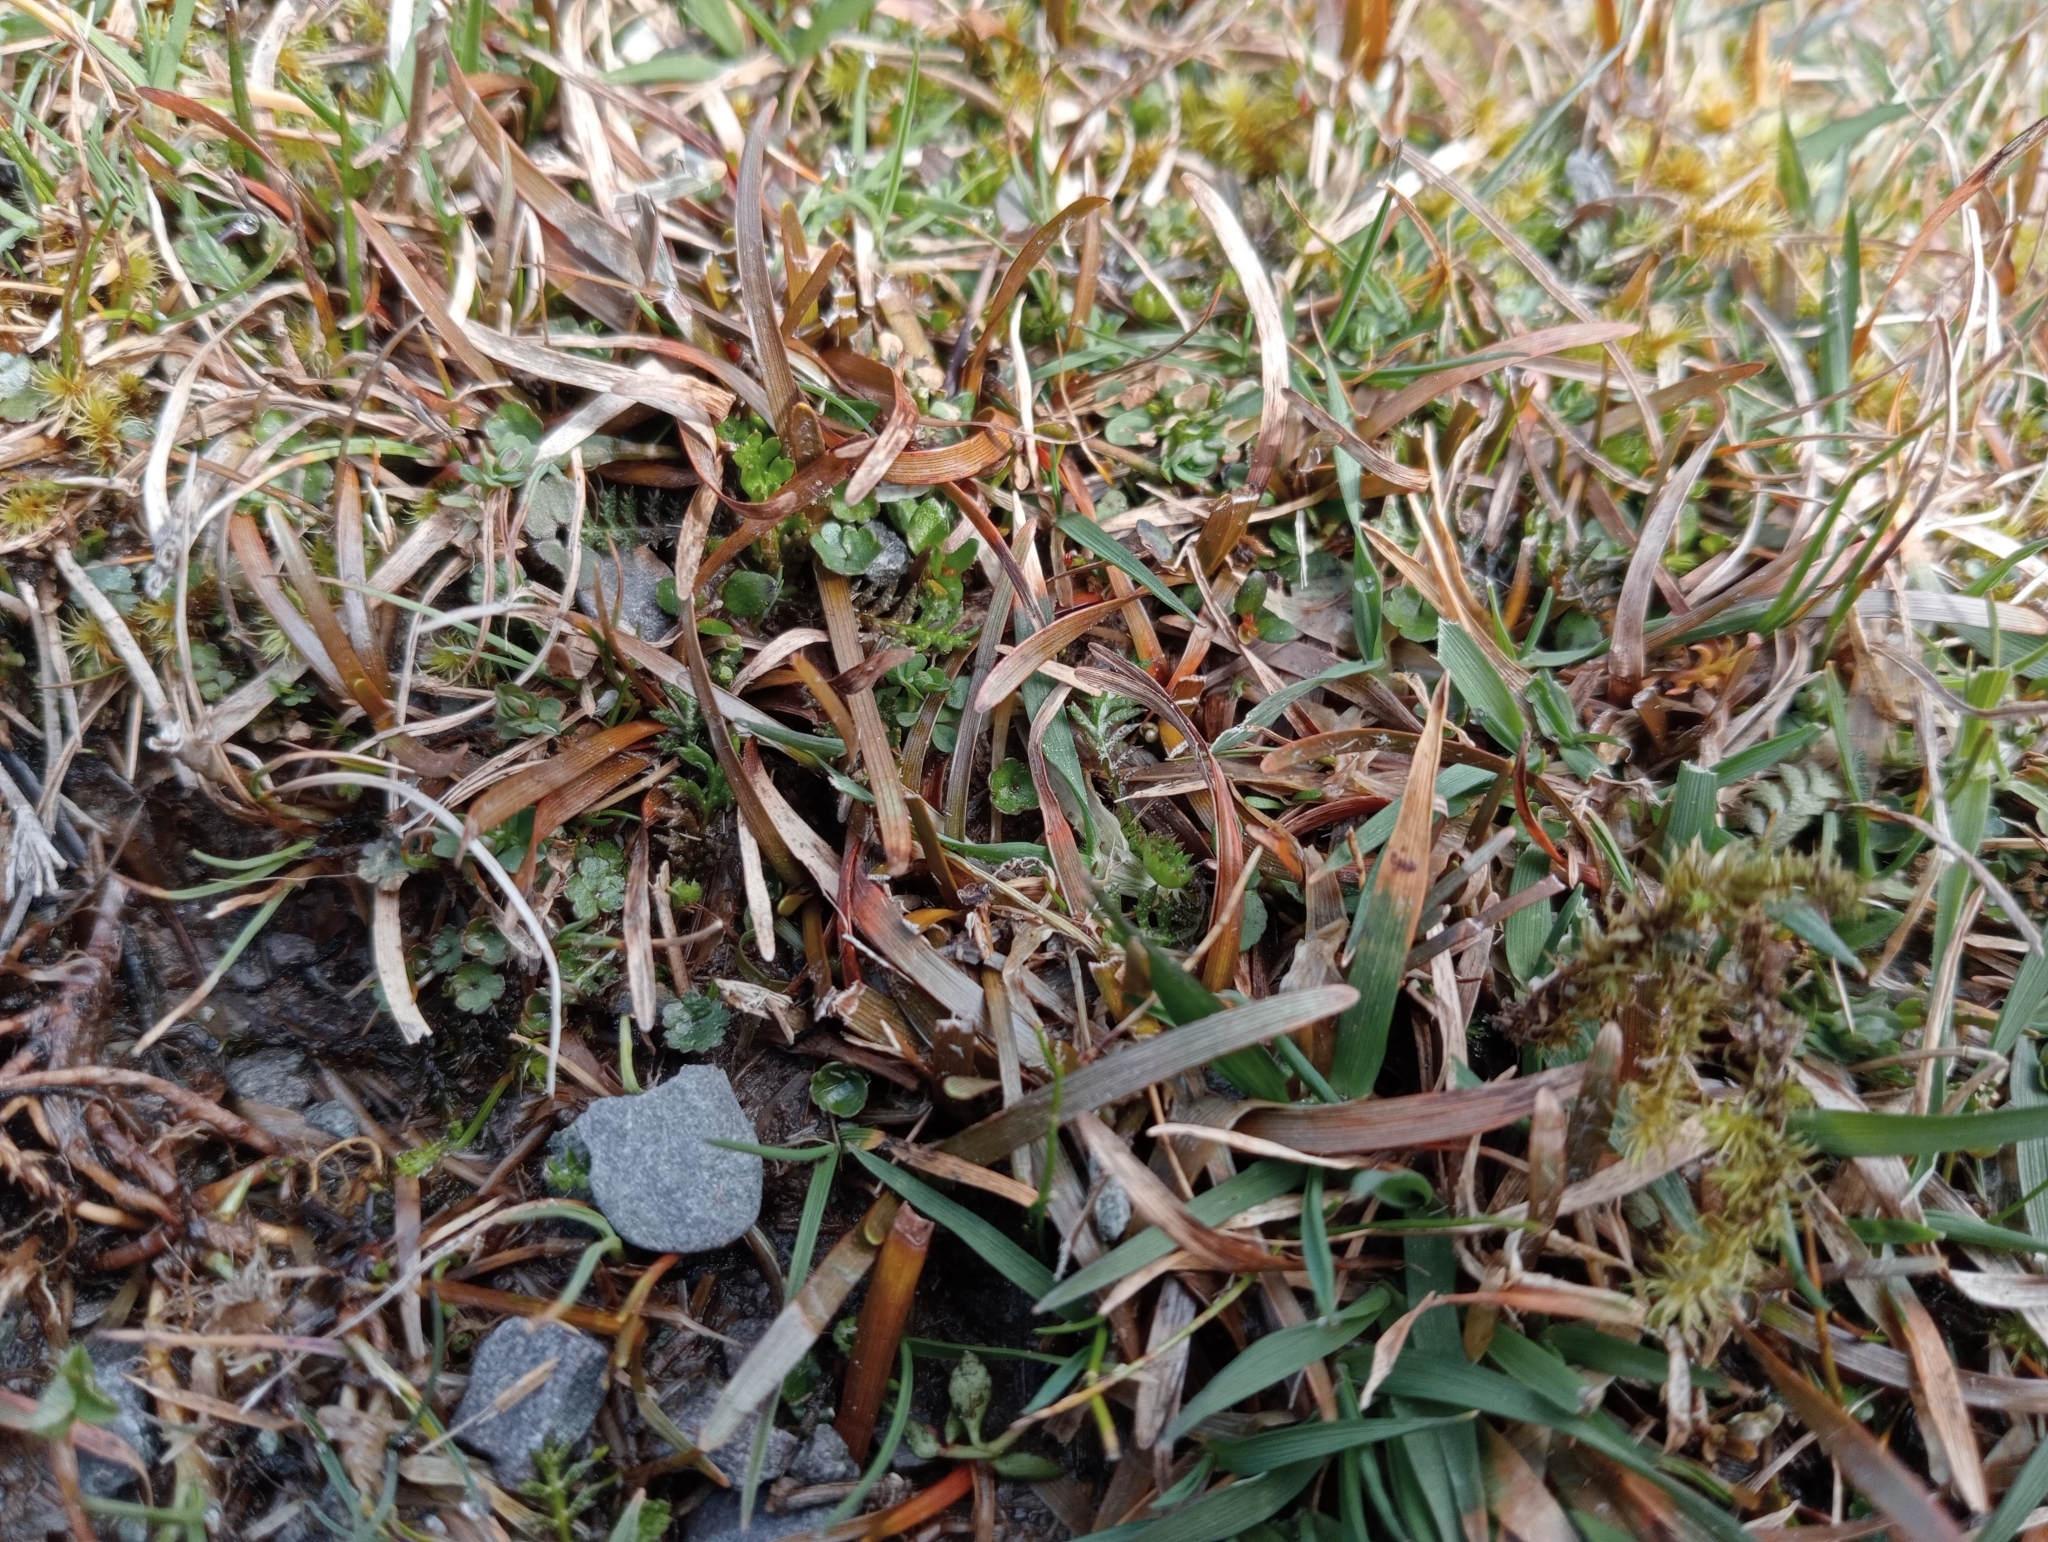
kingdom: Plantae
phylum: Tracheophyta
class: Liliopsida
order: Poales
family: Cyperaceae
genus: Carex
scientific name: Carex talbotii
